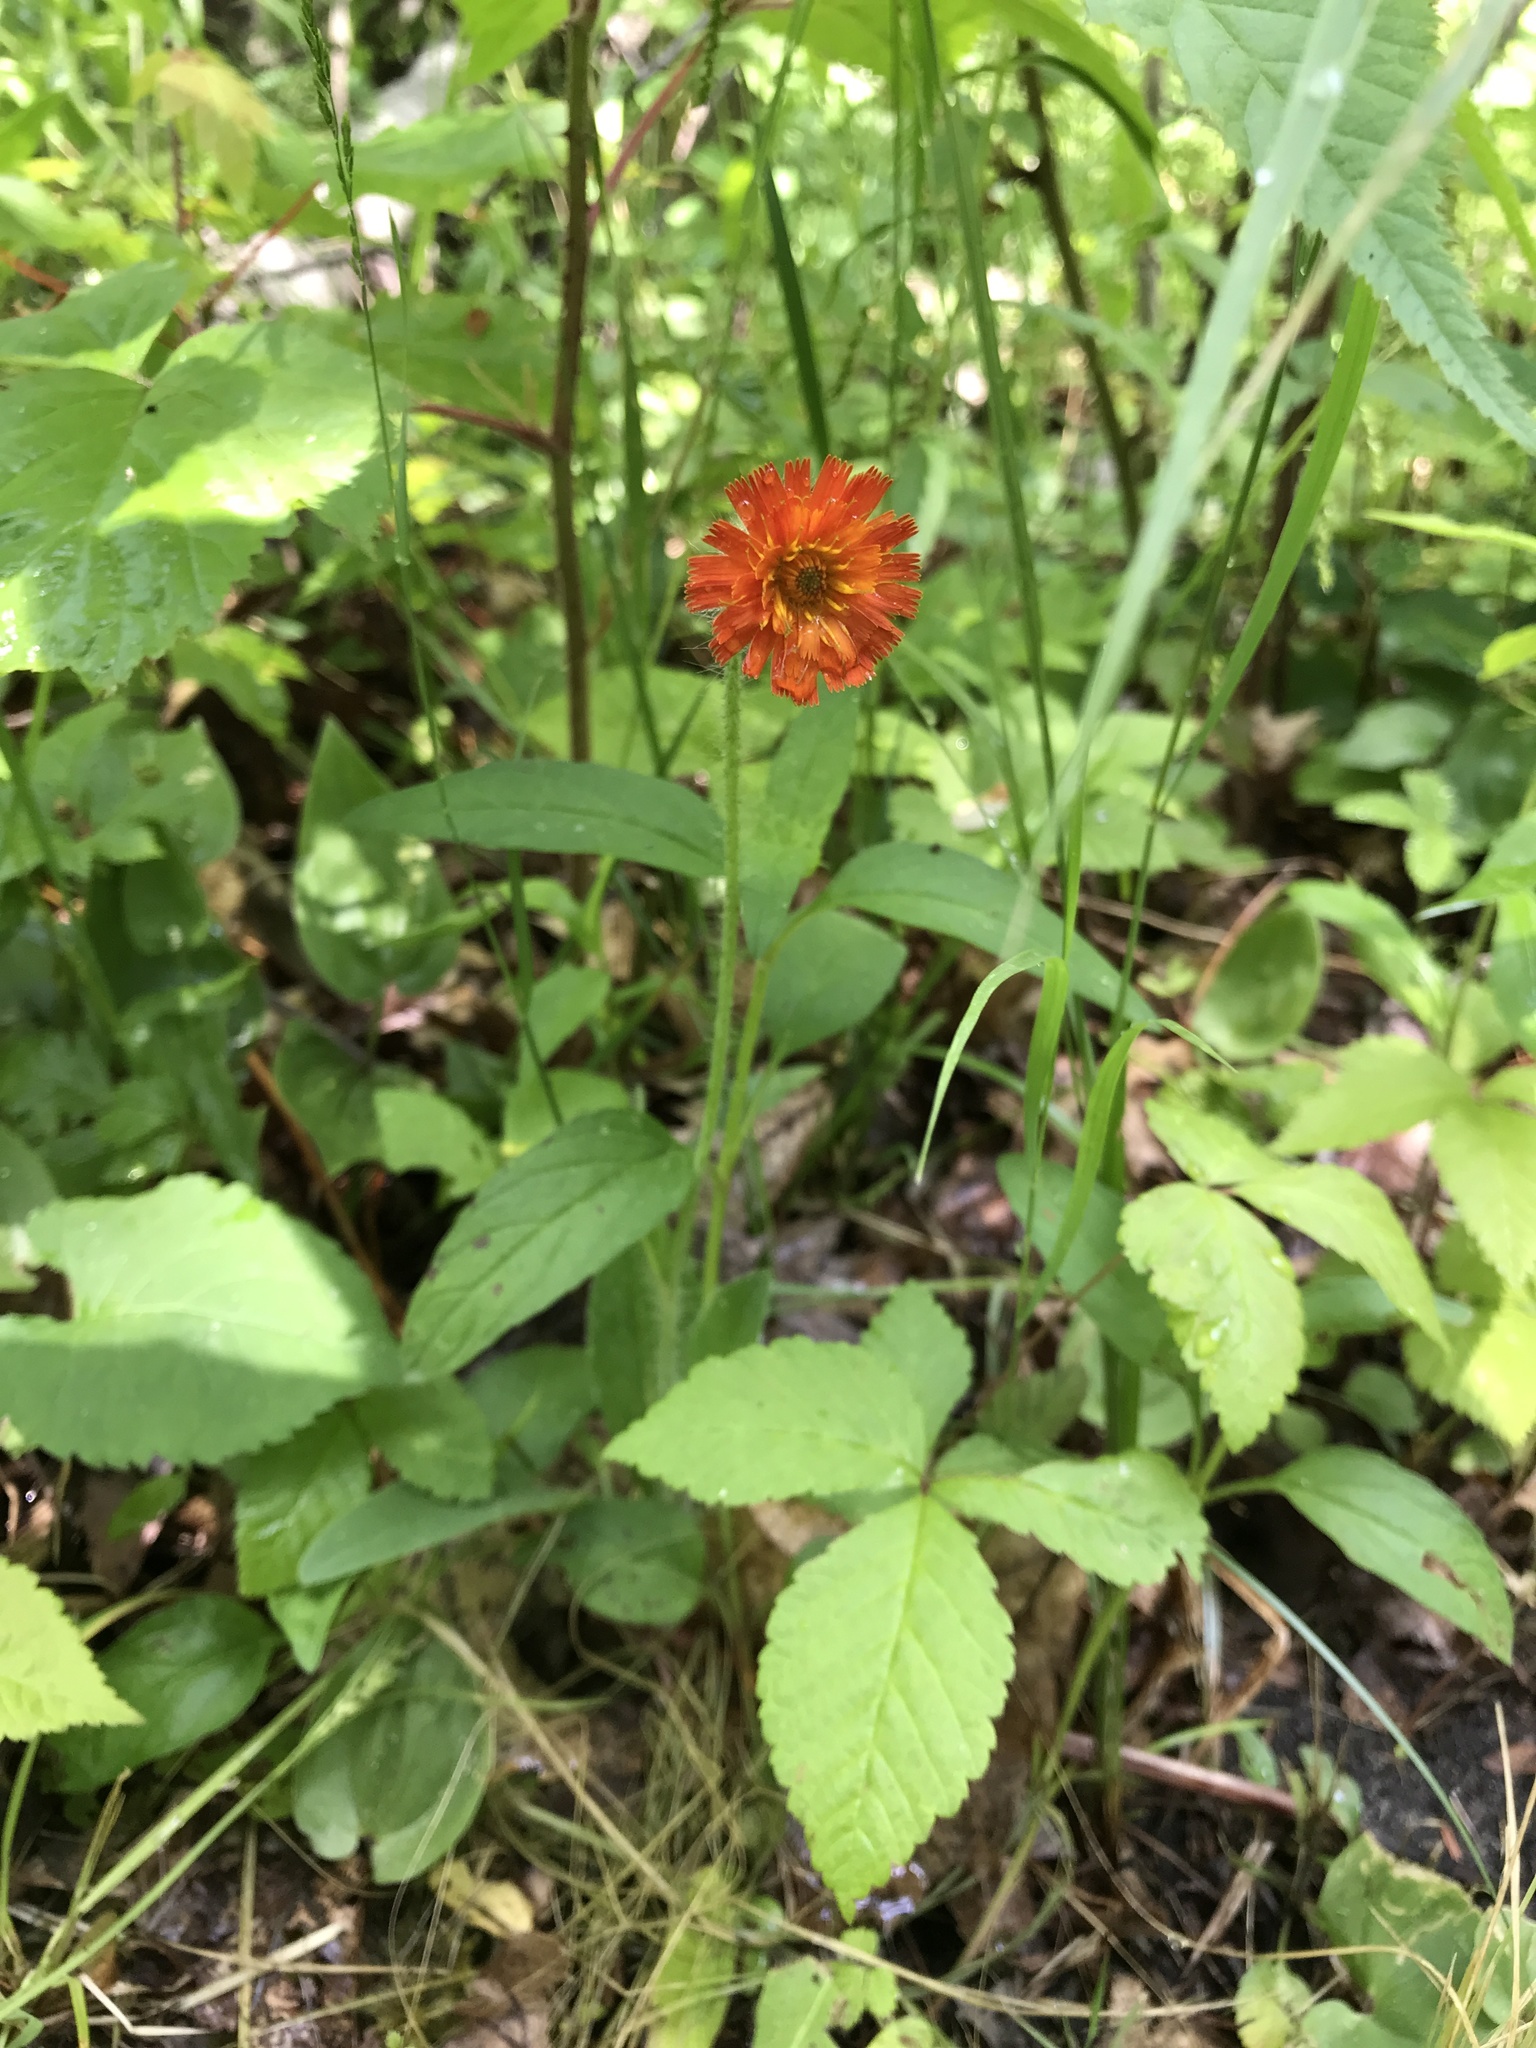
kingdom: Plantae
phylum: Tracheophyta
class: Magnoliopsida
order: Asterales
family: Asteraceae
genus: Pilosella
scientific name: Pilosella aurantiaca
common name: Fox-and-cubs
